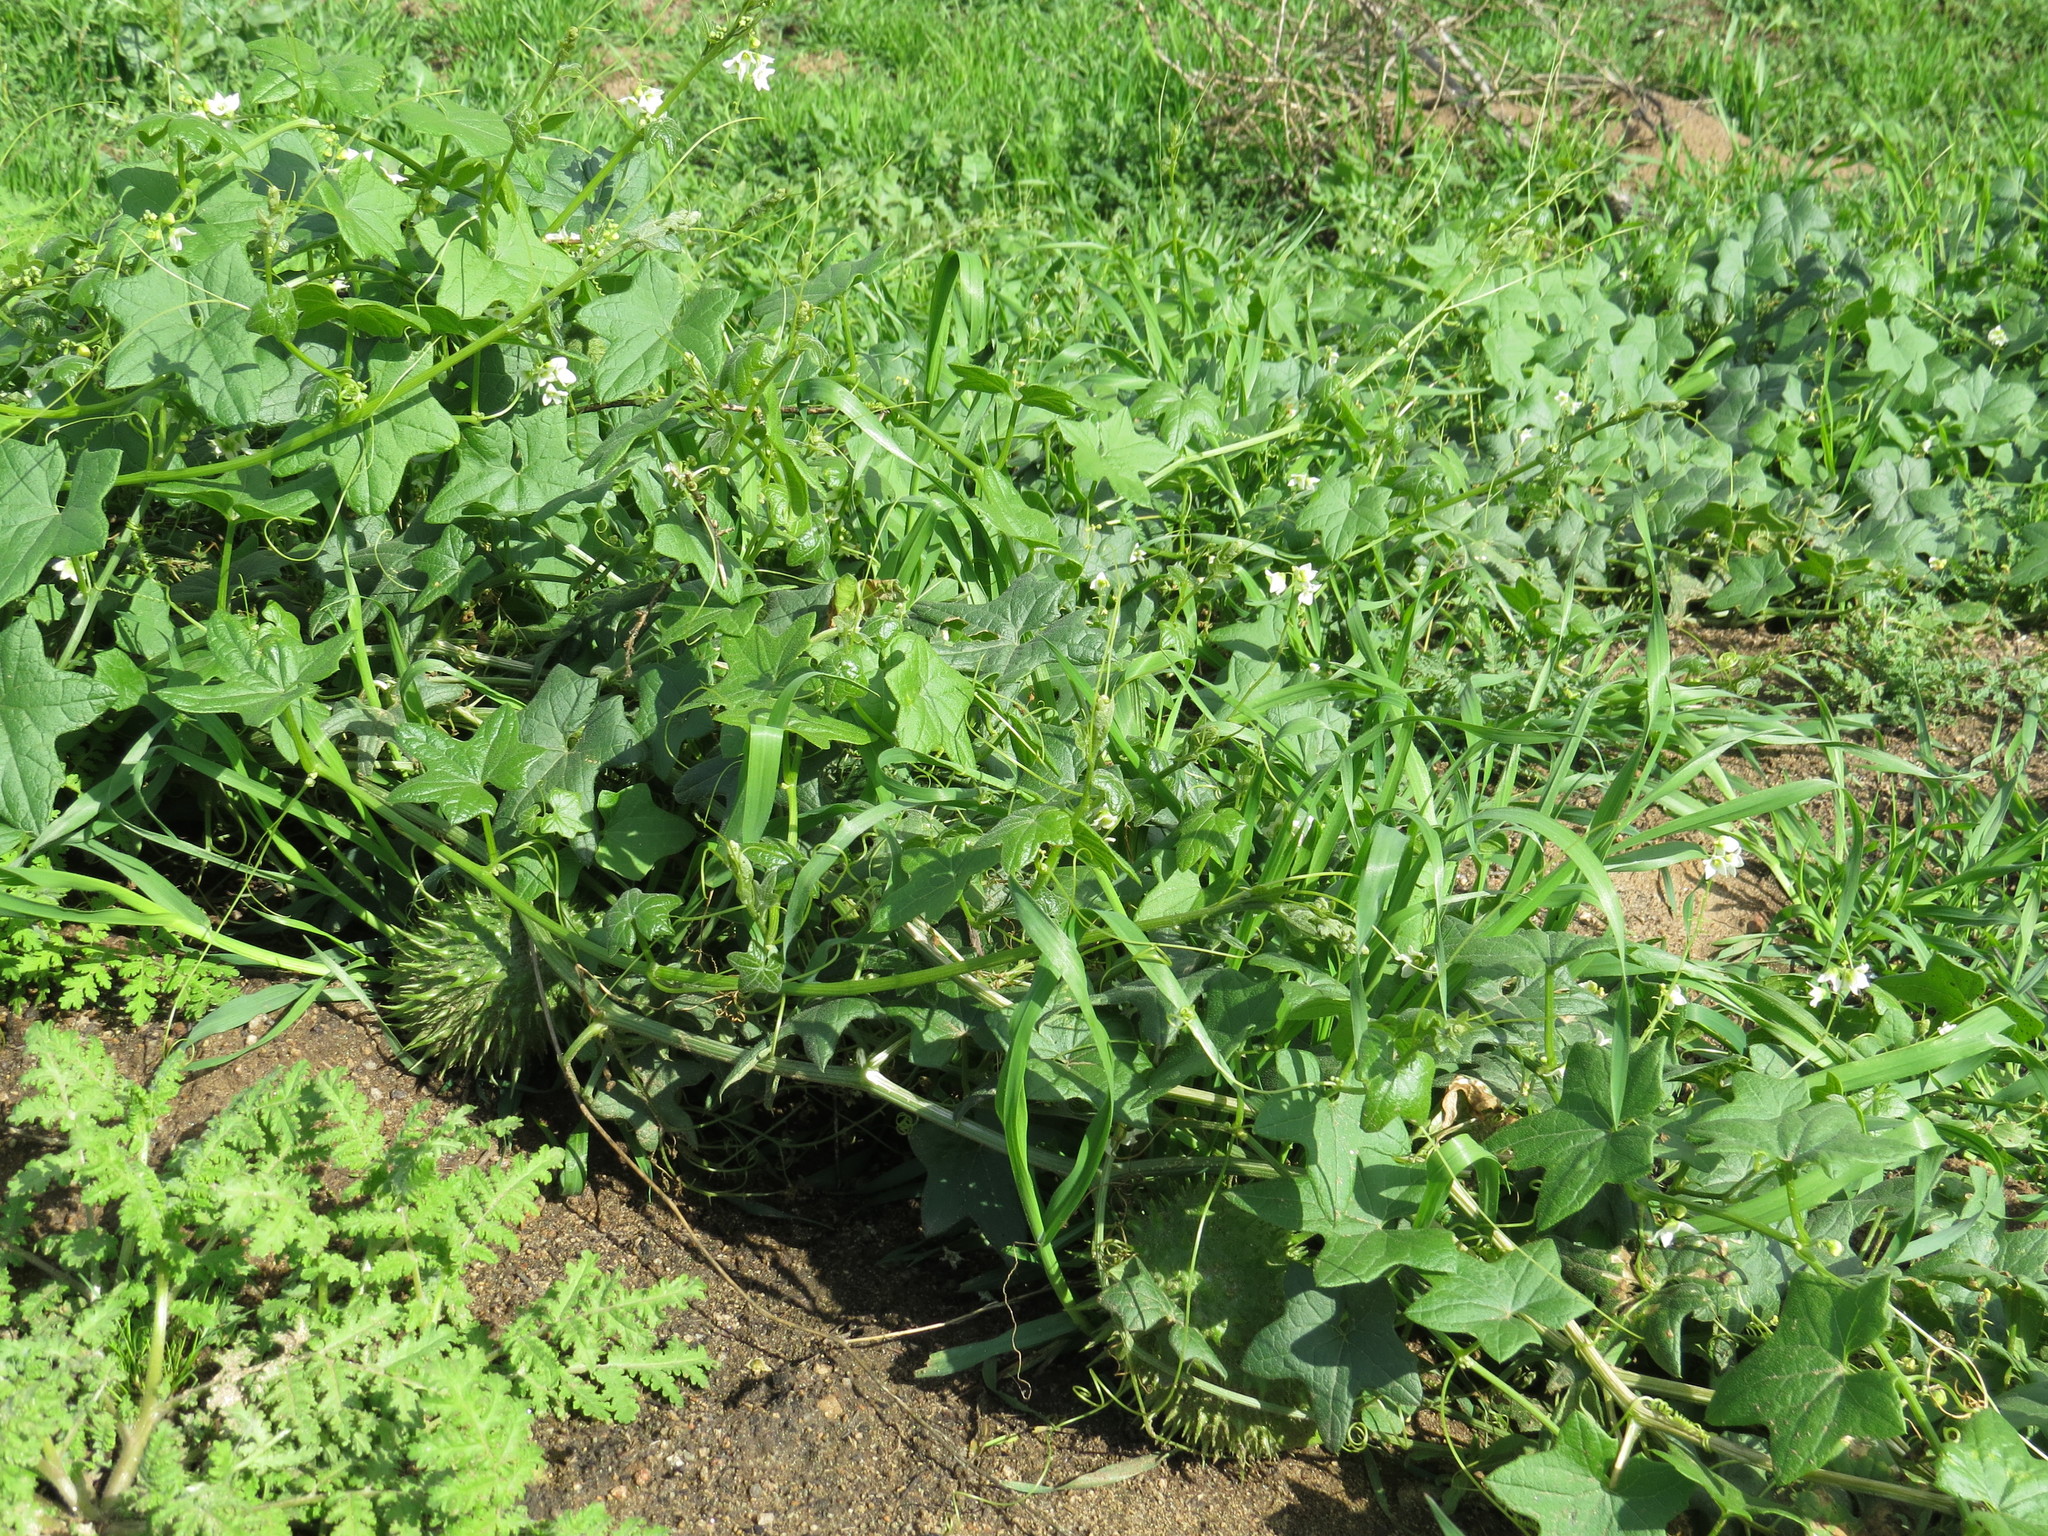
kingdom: Plantae
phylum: Tracheophyta
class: Magnoliopsida
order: Cucurbitales
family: Cucurbitaceae
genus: Marah
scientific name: Marah macrocarpa
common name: Cucamonga manroot
